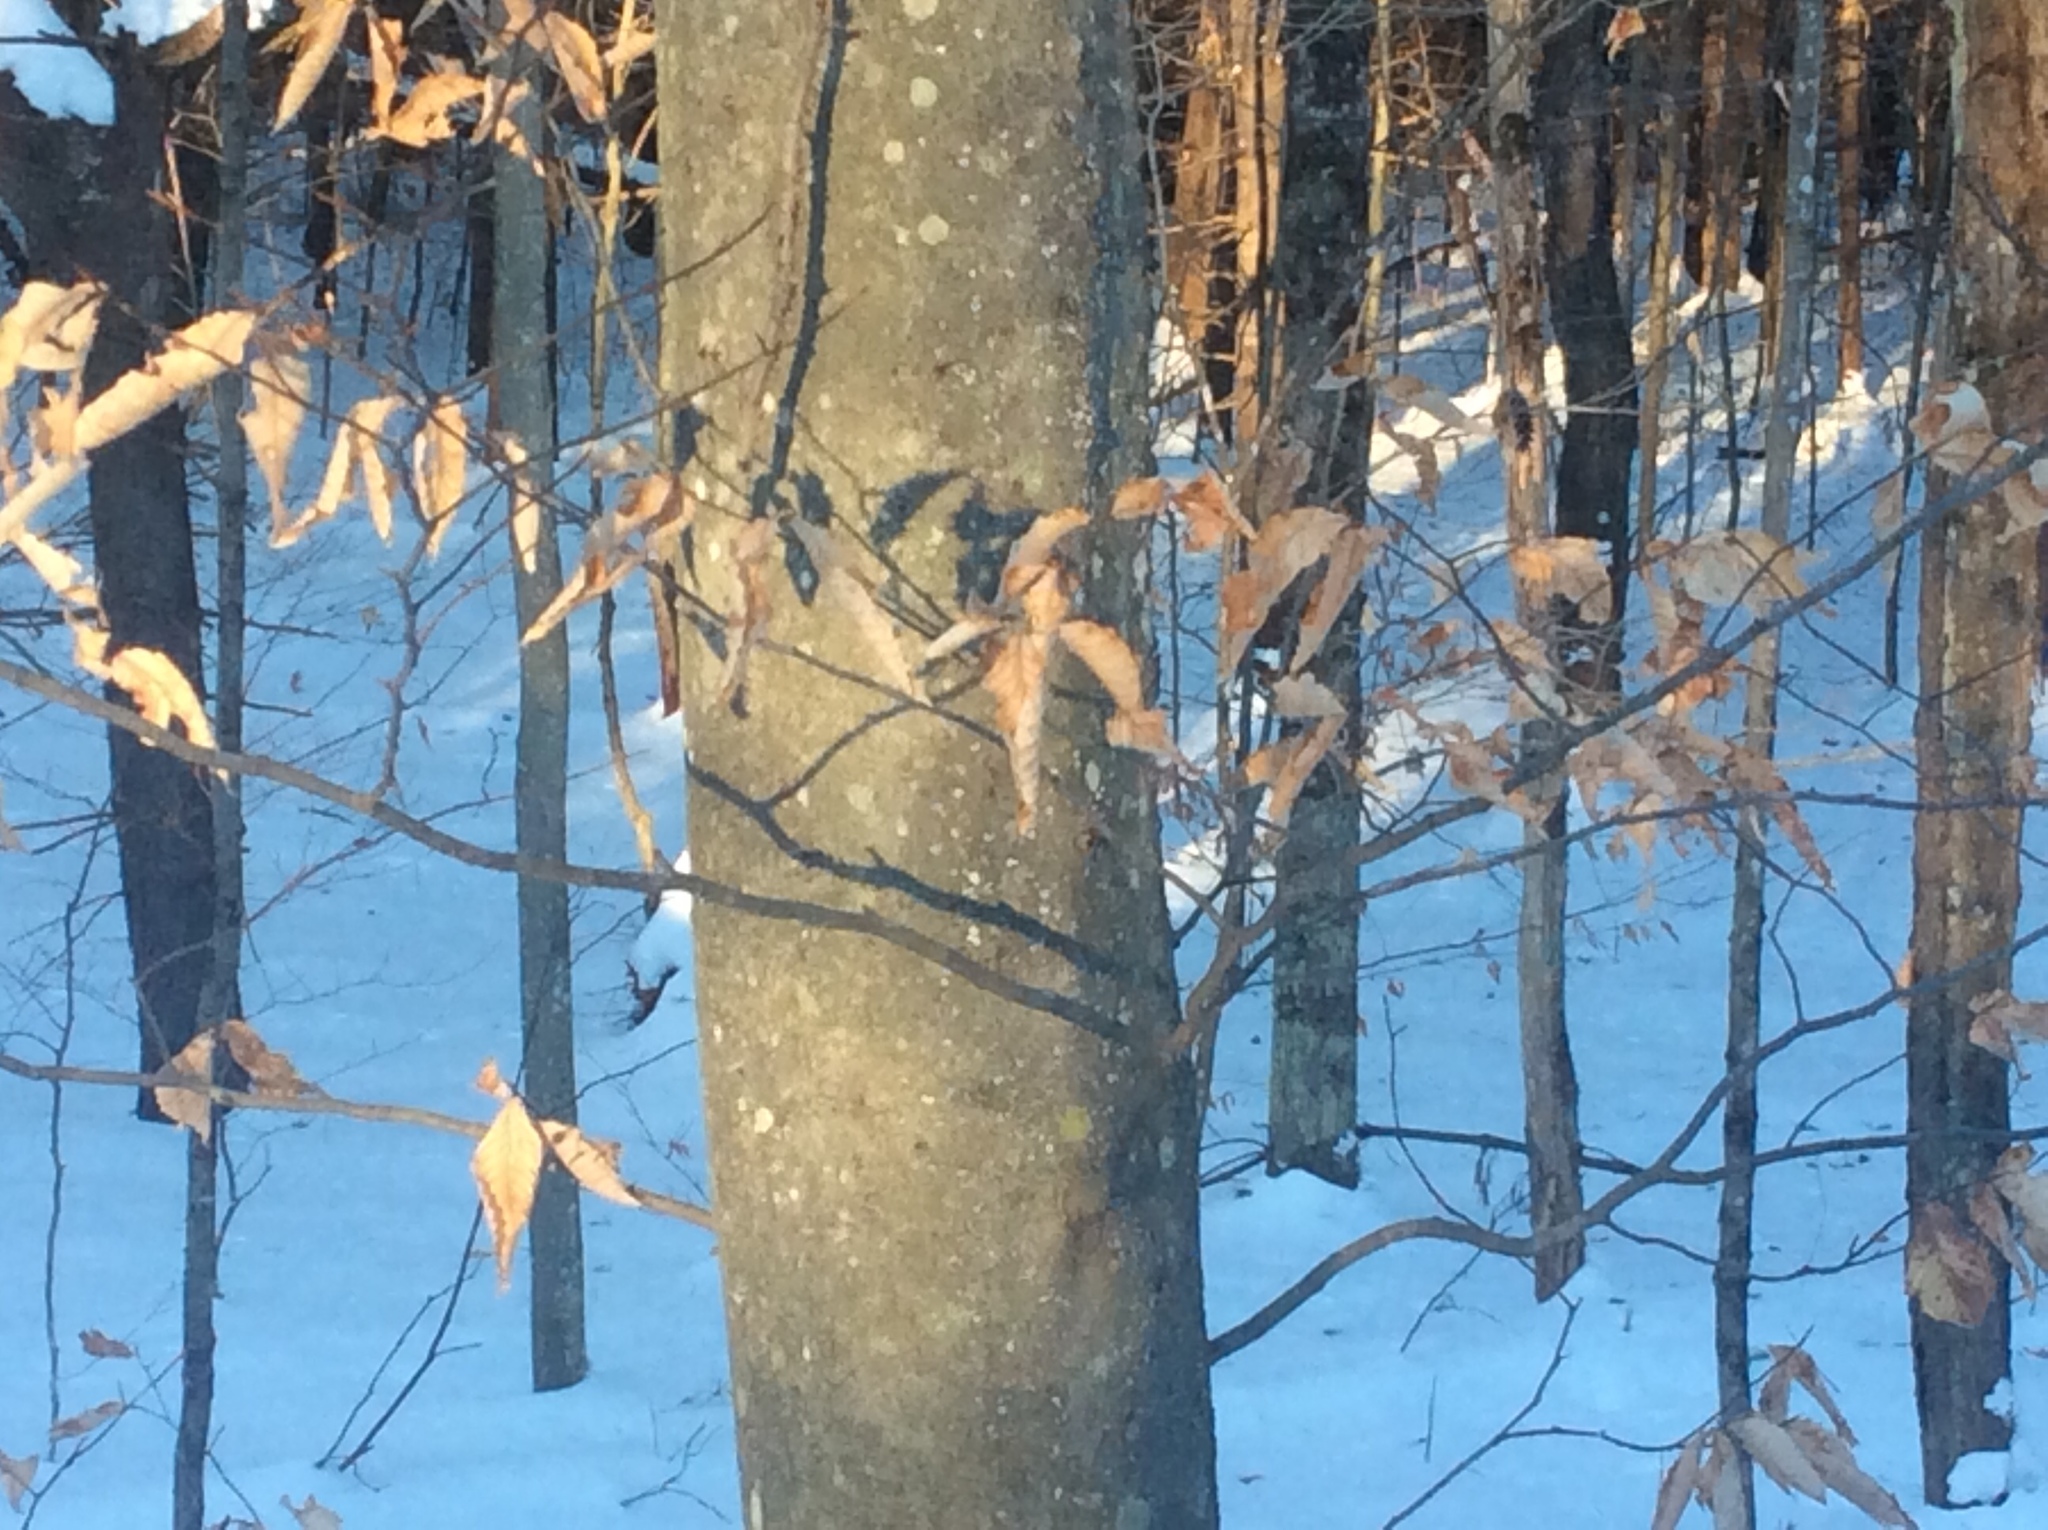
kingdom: Plantae
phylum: Tracheophyta
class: Magnoliopsida
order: Fagales
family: Fagaceae
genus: Fagus
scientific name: Fagus grandifolia
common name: American beech
